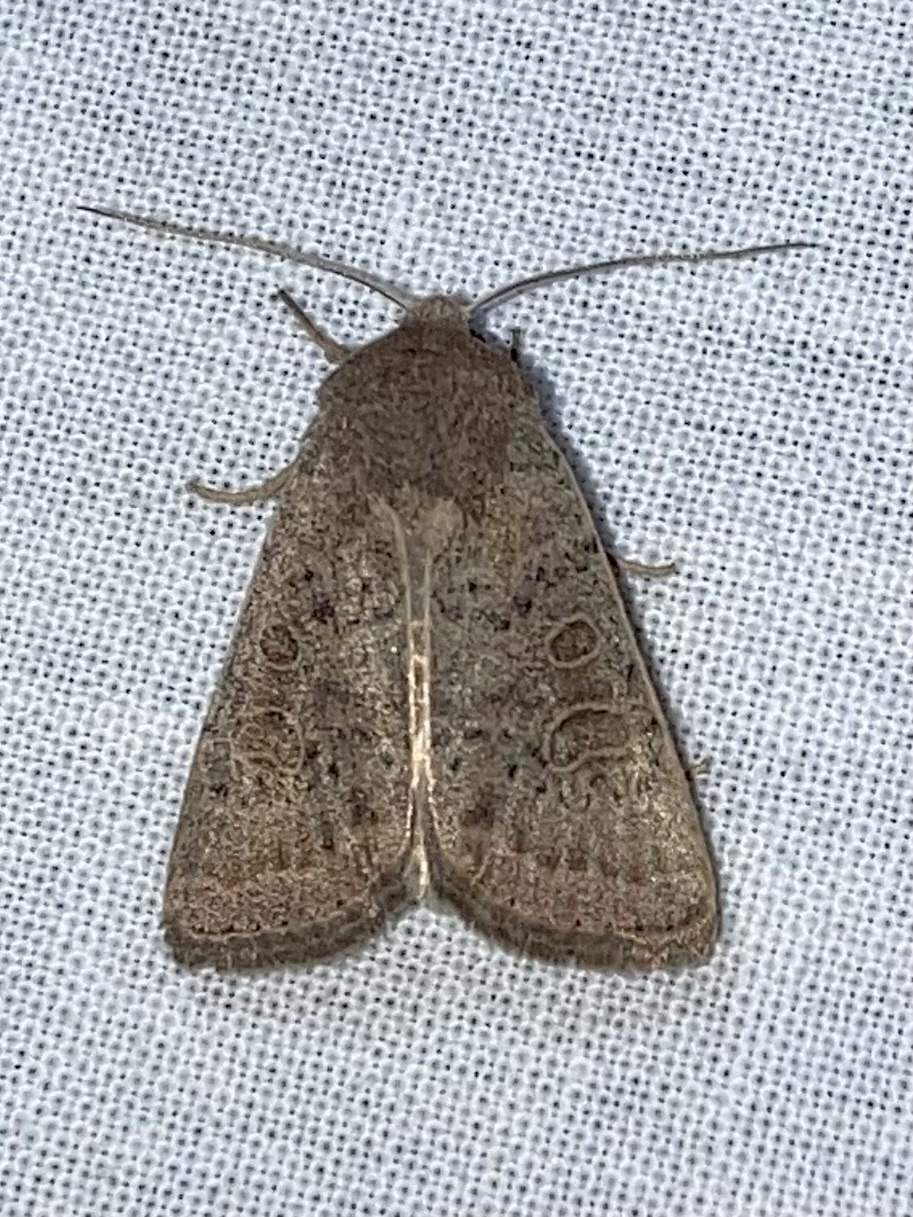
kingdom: Animalia
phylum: Arthropoda
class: Insecta
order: Lepidoptera
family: Noctuidae
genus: Hoplodrina
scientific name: Hoplodrina ambigua
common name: Vine's rustic
